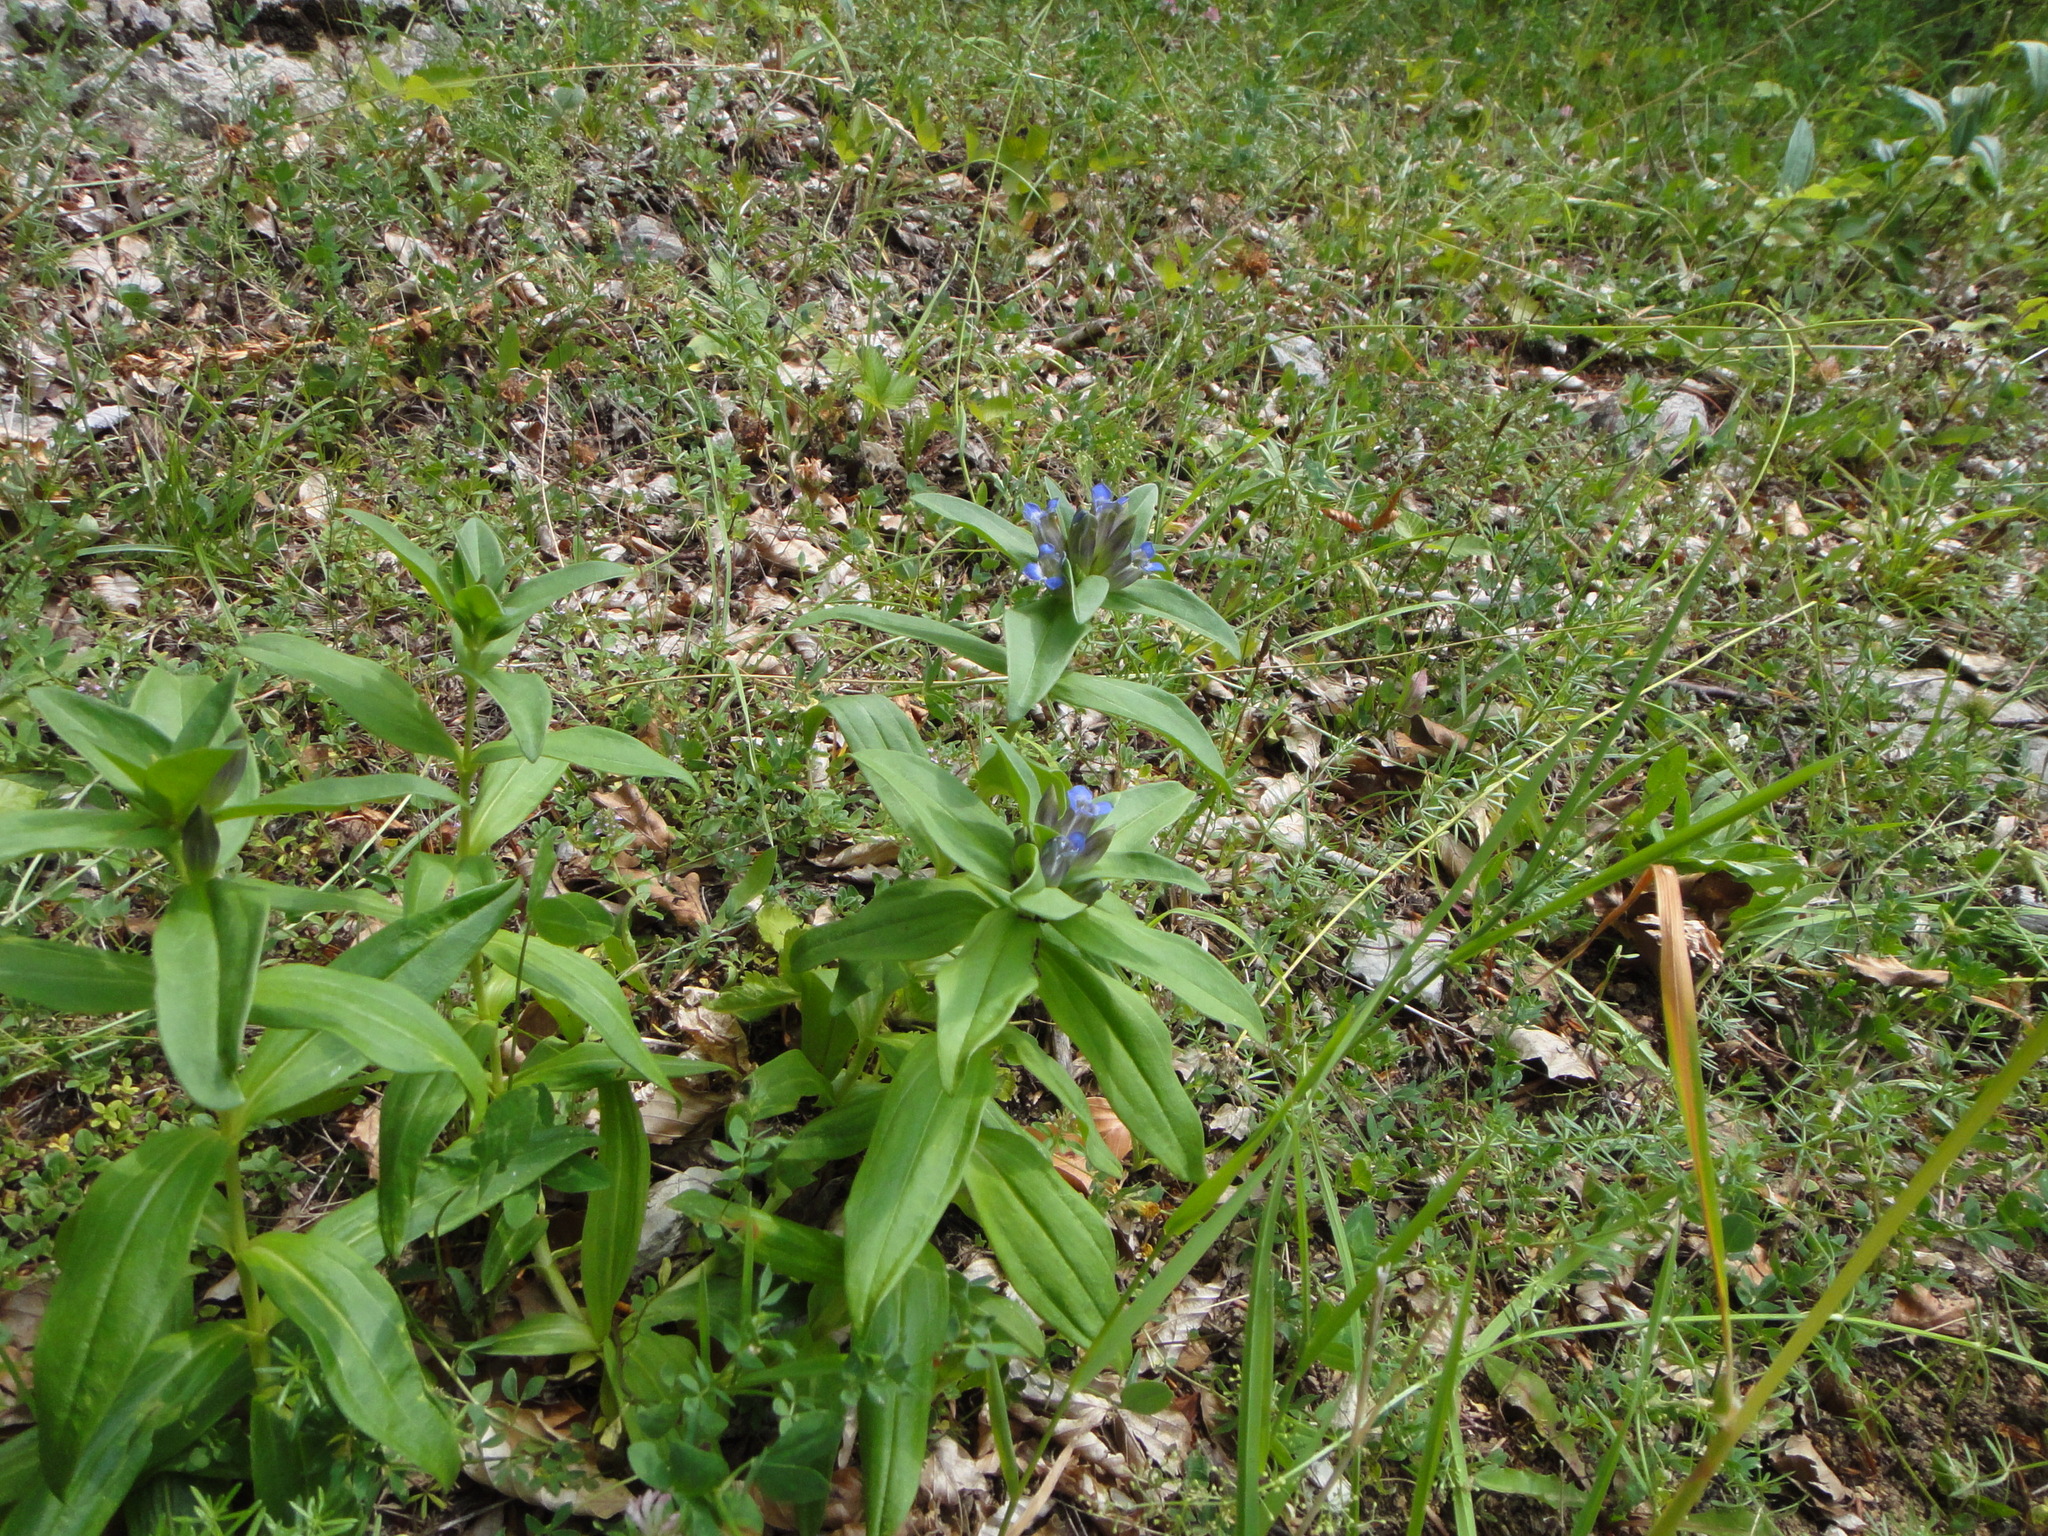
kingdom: Plantae
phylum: Tracheophyta
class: Magnoliopsida
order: Gentianales
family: Gentianaceae
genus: Gentiana
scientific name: Gentiana cruciata
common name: Cross gentian
